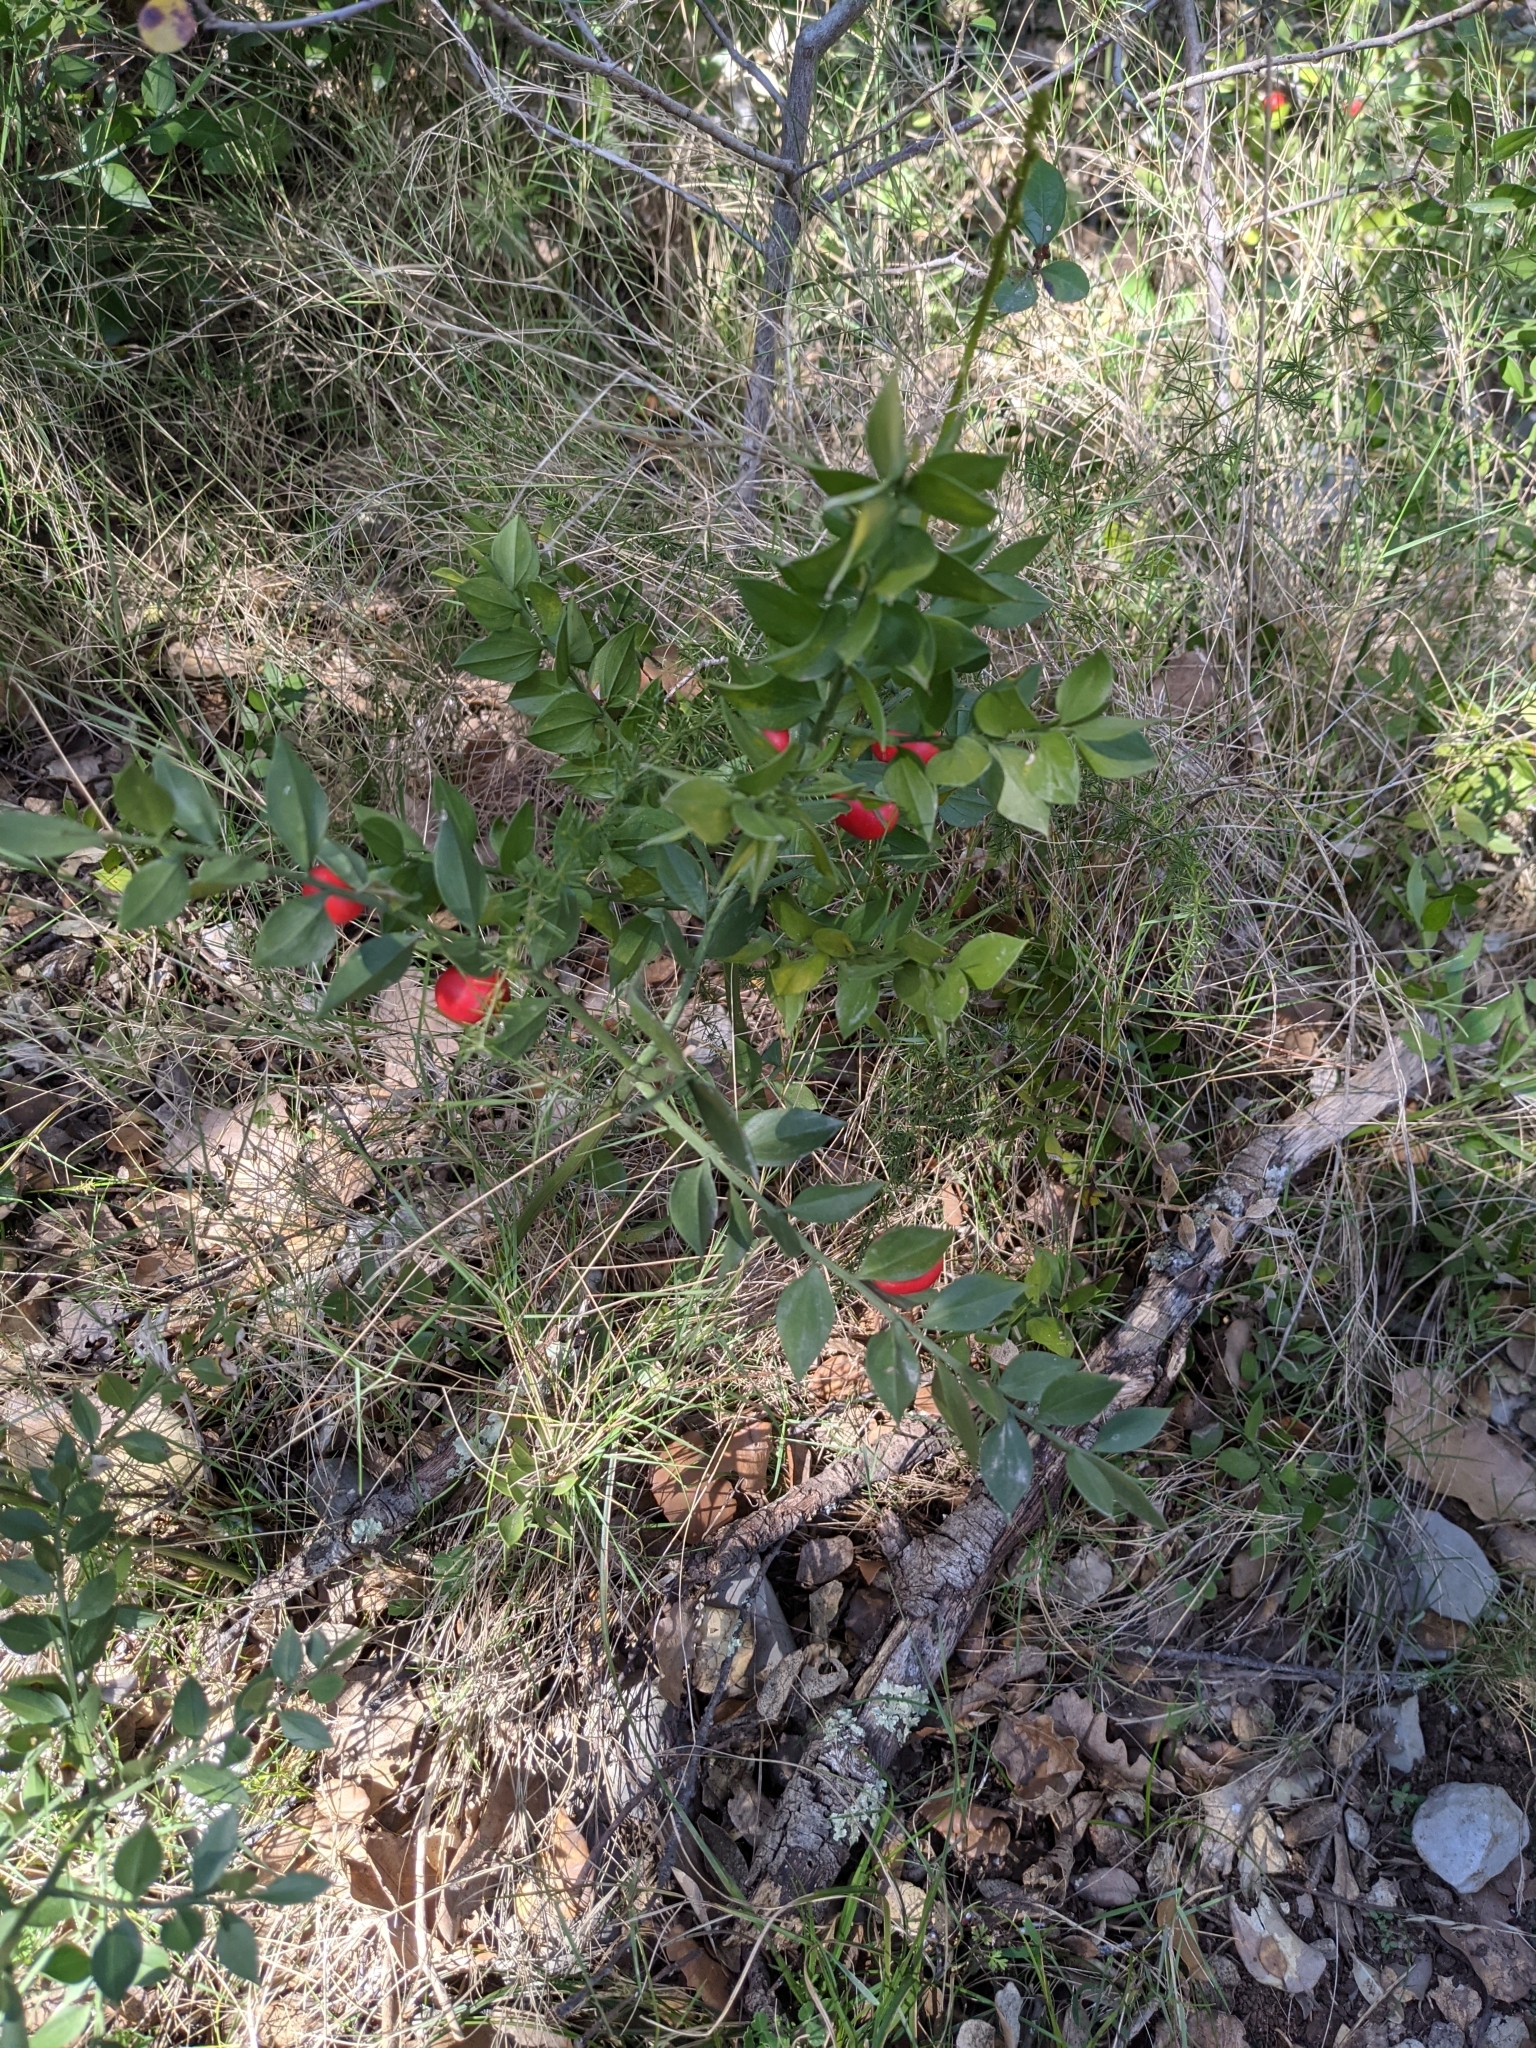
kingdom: Plantae
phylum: Tracheophyta
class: Liliopsida
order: Asparagales
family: Asparagaceae
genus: Ruscus
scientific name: Ruscus aculeatus
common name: Butcher's-broom
